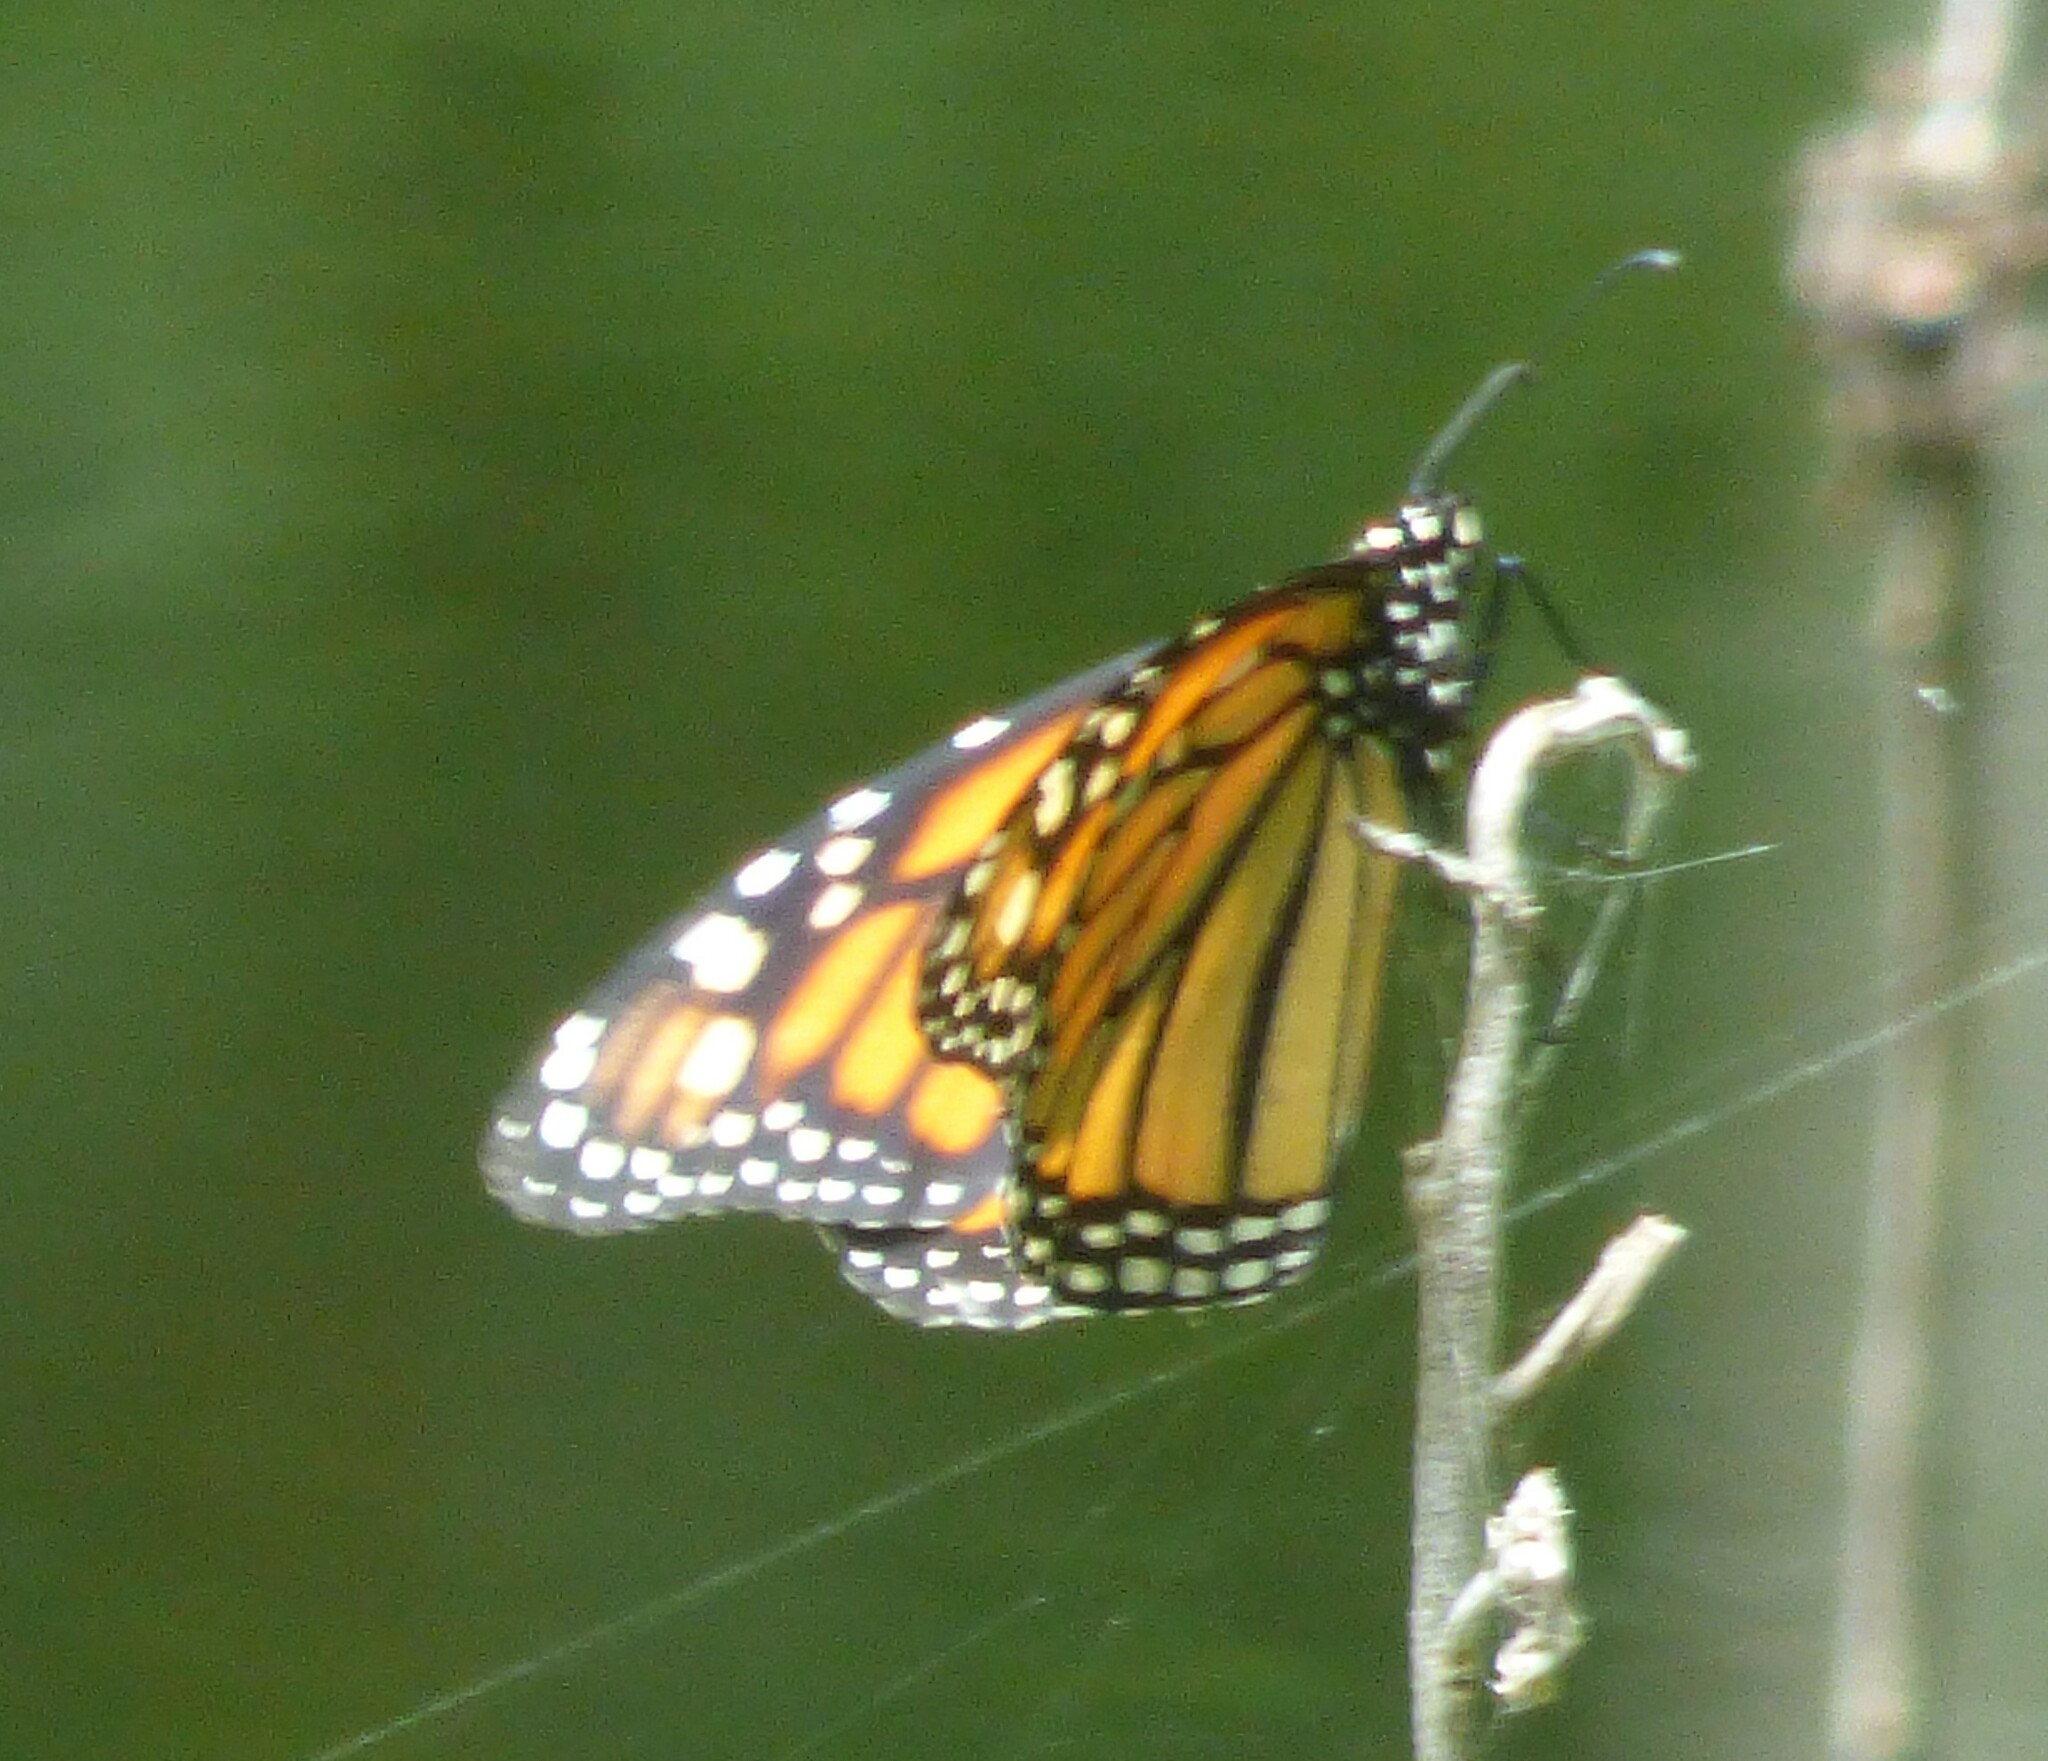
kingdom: Animalia
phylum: Arthropoda
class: Insecta
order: Lepidoptera
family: Nymphalidae
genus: Danaus
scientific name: Danaus plexippus
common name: Monarch
